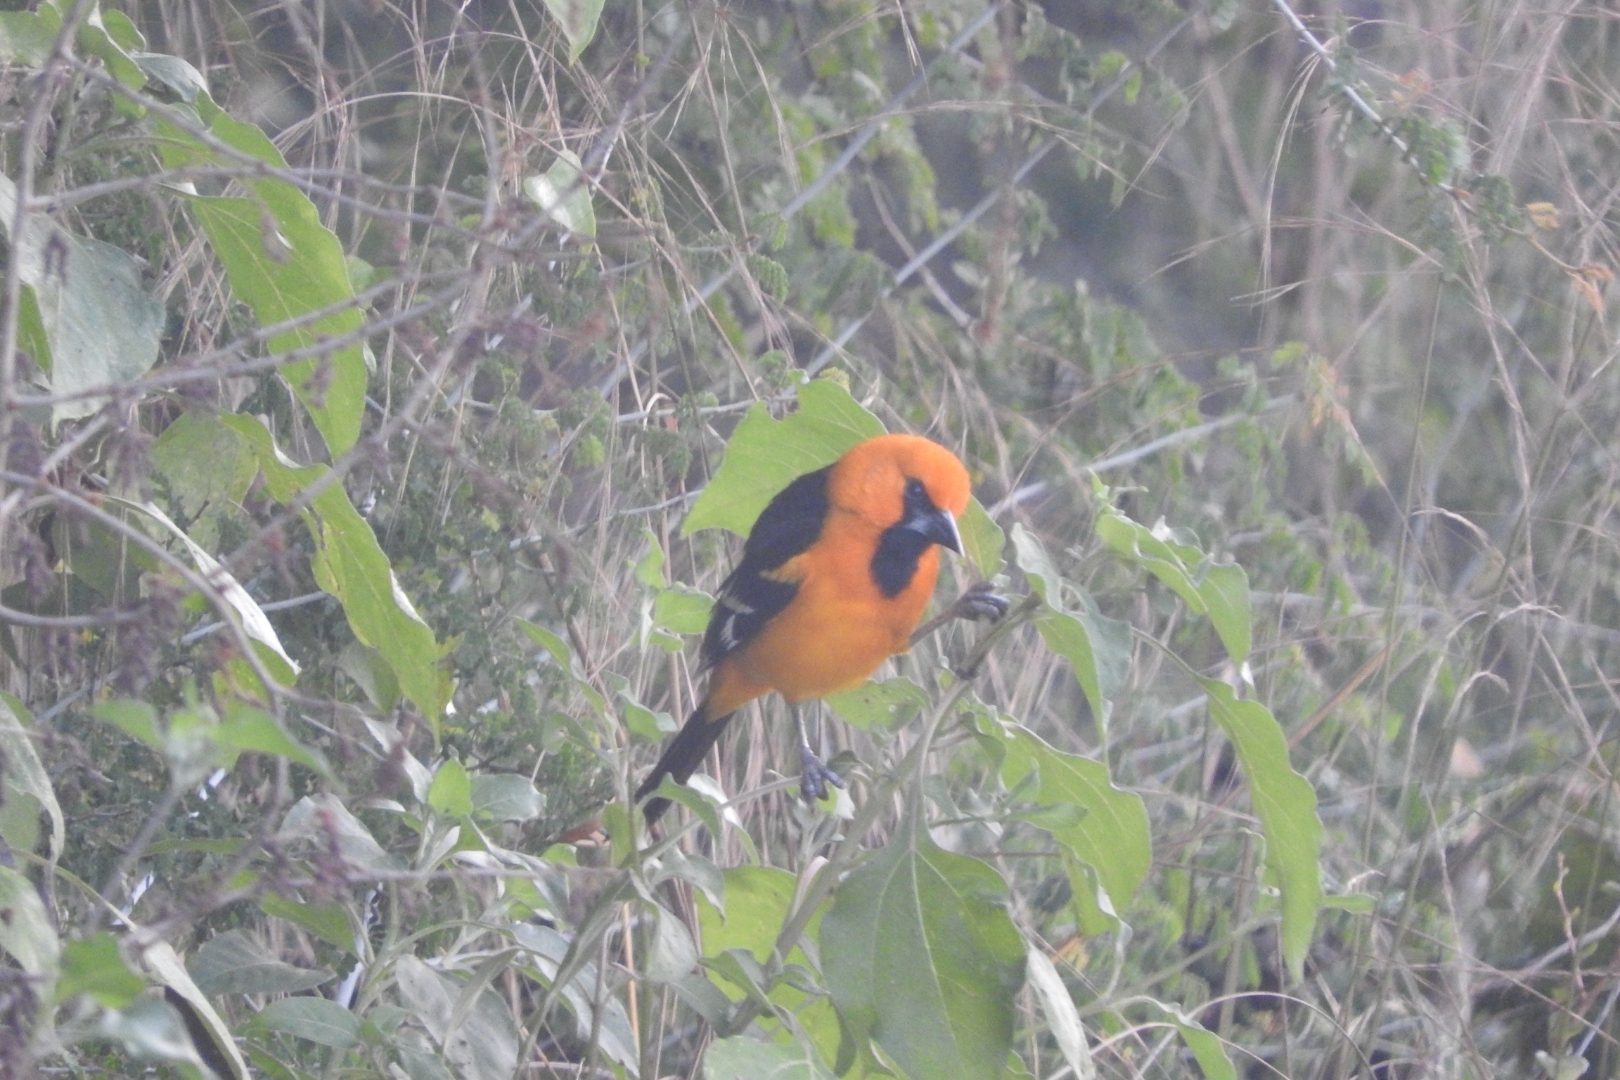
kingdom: Animalia
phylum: Chordata
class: Aves
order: Passeriformes
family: Icteridae
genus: Icterus
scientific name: Icterus gularis
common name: Altamira oriole
